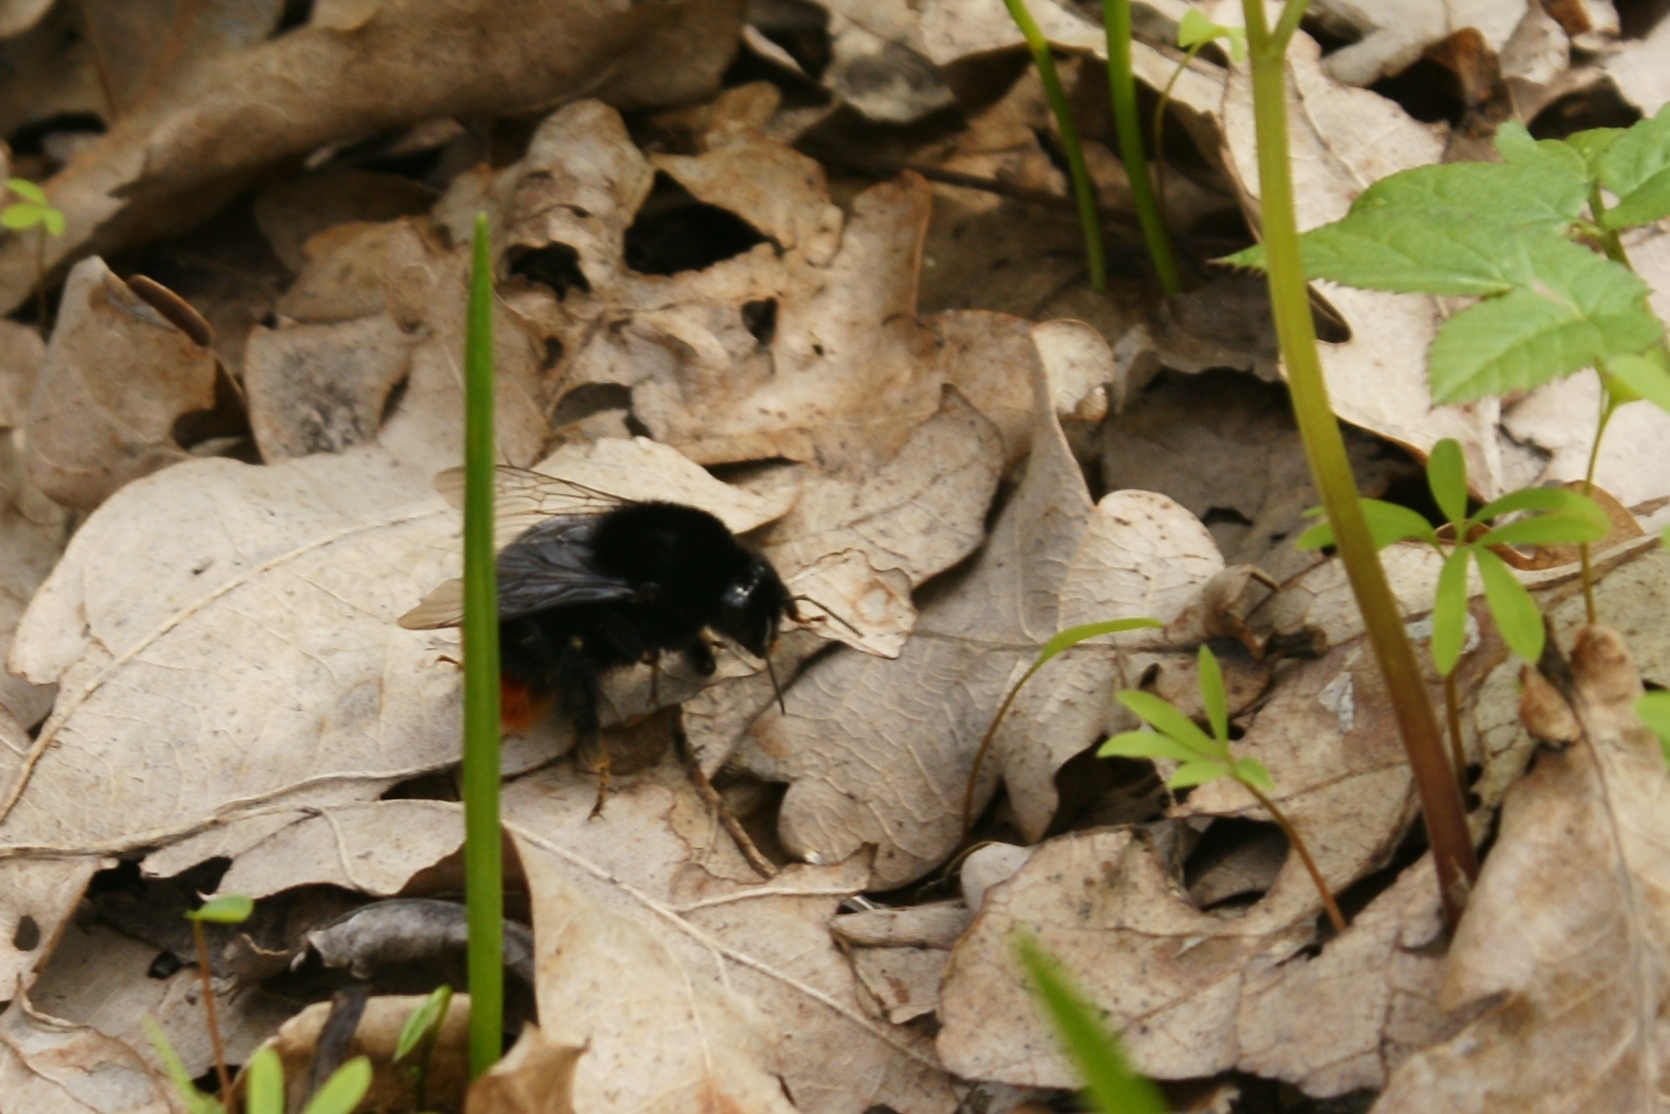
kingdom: Animalia
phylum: Arthropoda
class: Insecta
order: Hymenoptera
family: Apidae
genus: Bombus
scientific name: Bombus
